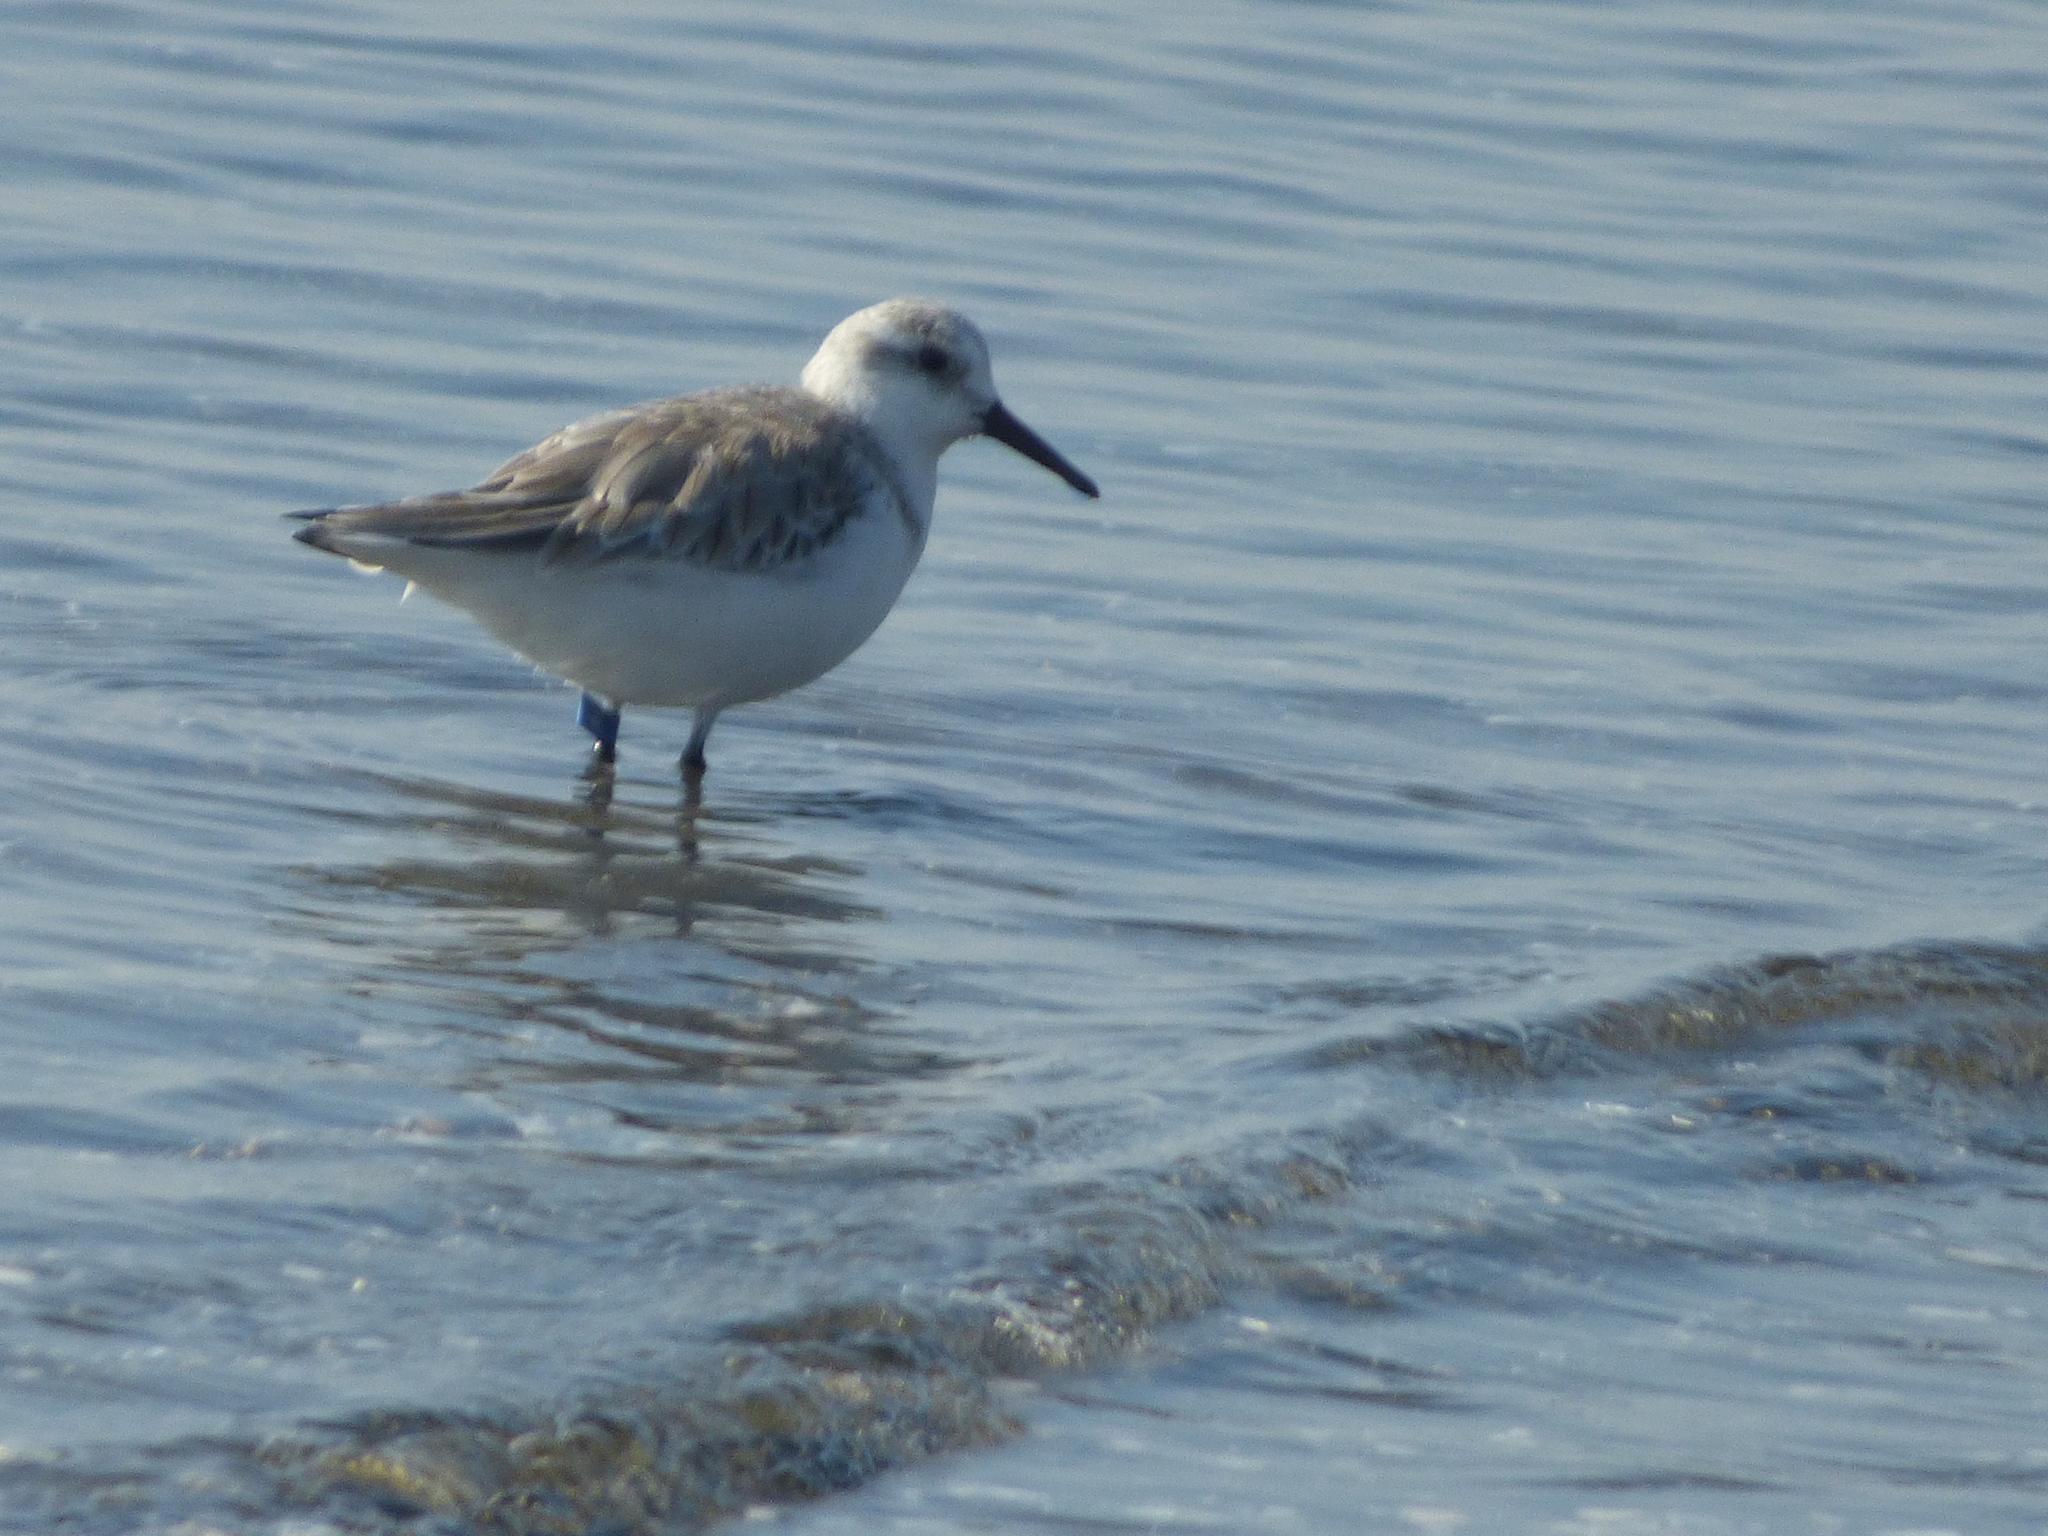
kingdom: Animalia
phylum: Chordata
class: Aves
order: Charadriiformes
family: Scolopacidae
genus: Calidris
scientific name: Calidris alba
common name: Sanderling
